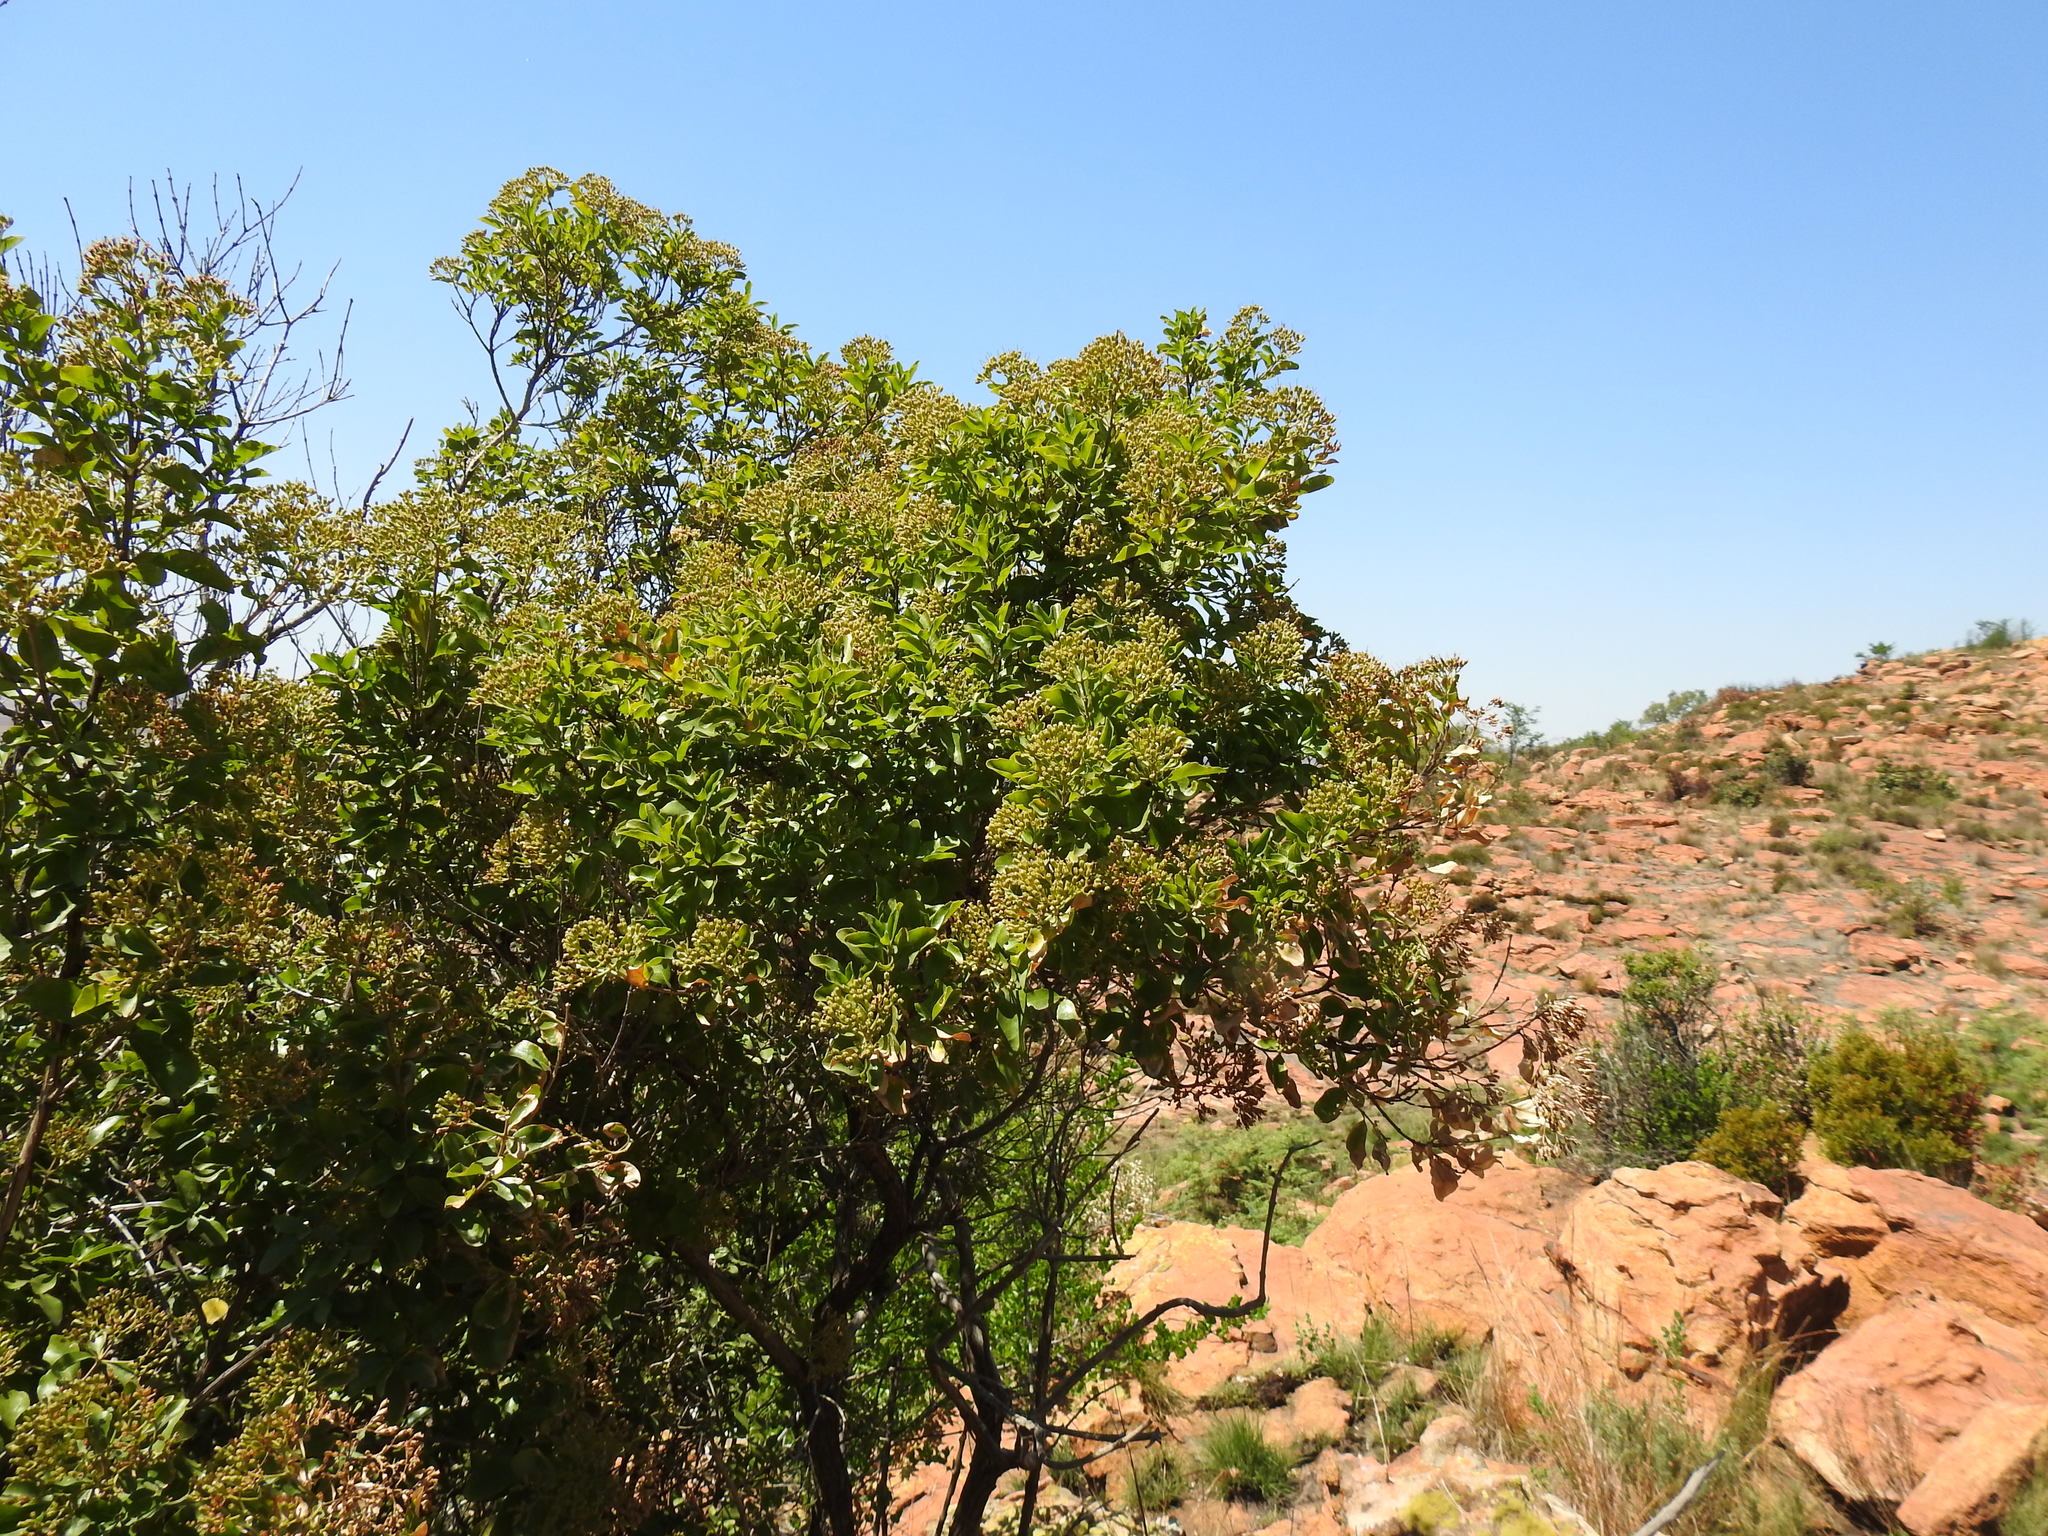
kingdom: Plantae
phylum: Tracheophyta
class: Magnoliopsida
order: Lamiales
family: Stilbaceae
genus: Nuxia
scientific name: Nuxia congesta
